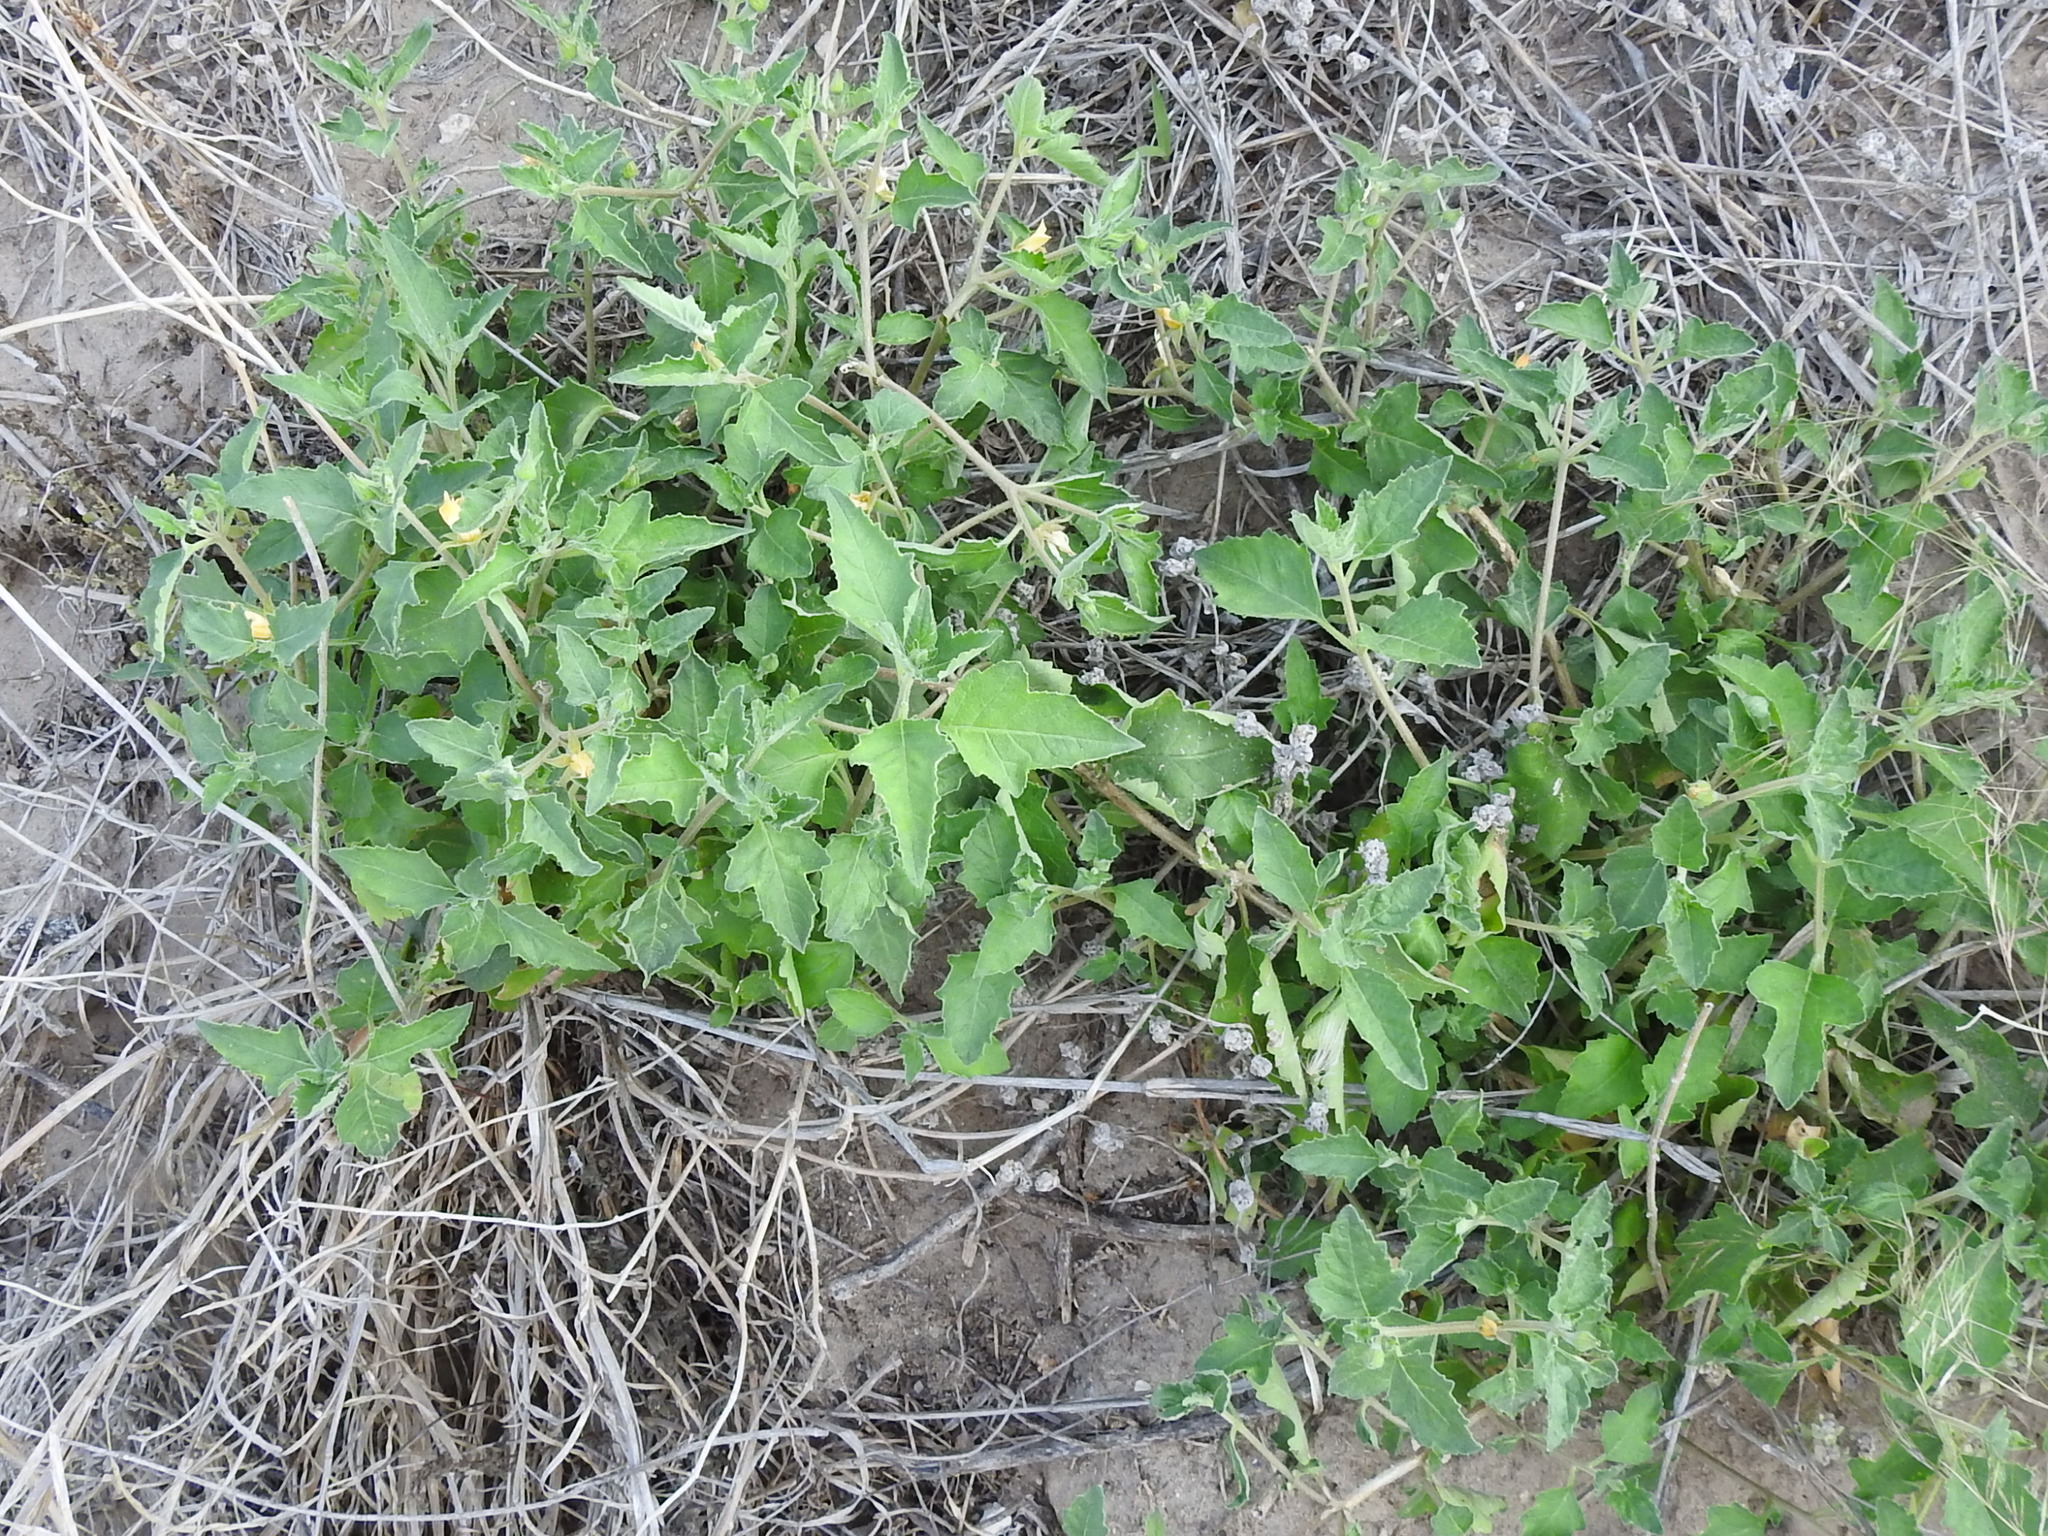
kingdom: Plantae
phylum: Tracheophyta
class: Magnoliopsida
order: Cornales
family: Loasaceae
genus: Mentzelia
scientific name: Mentzelia oligosperma
